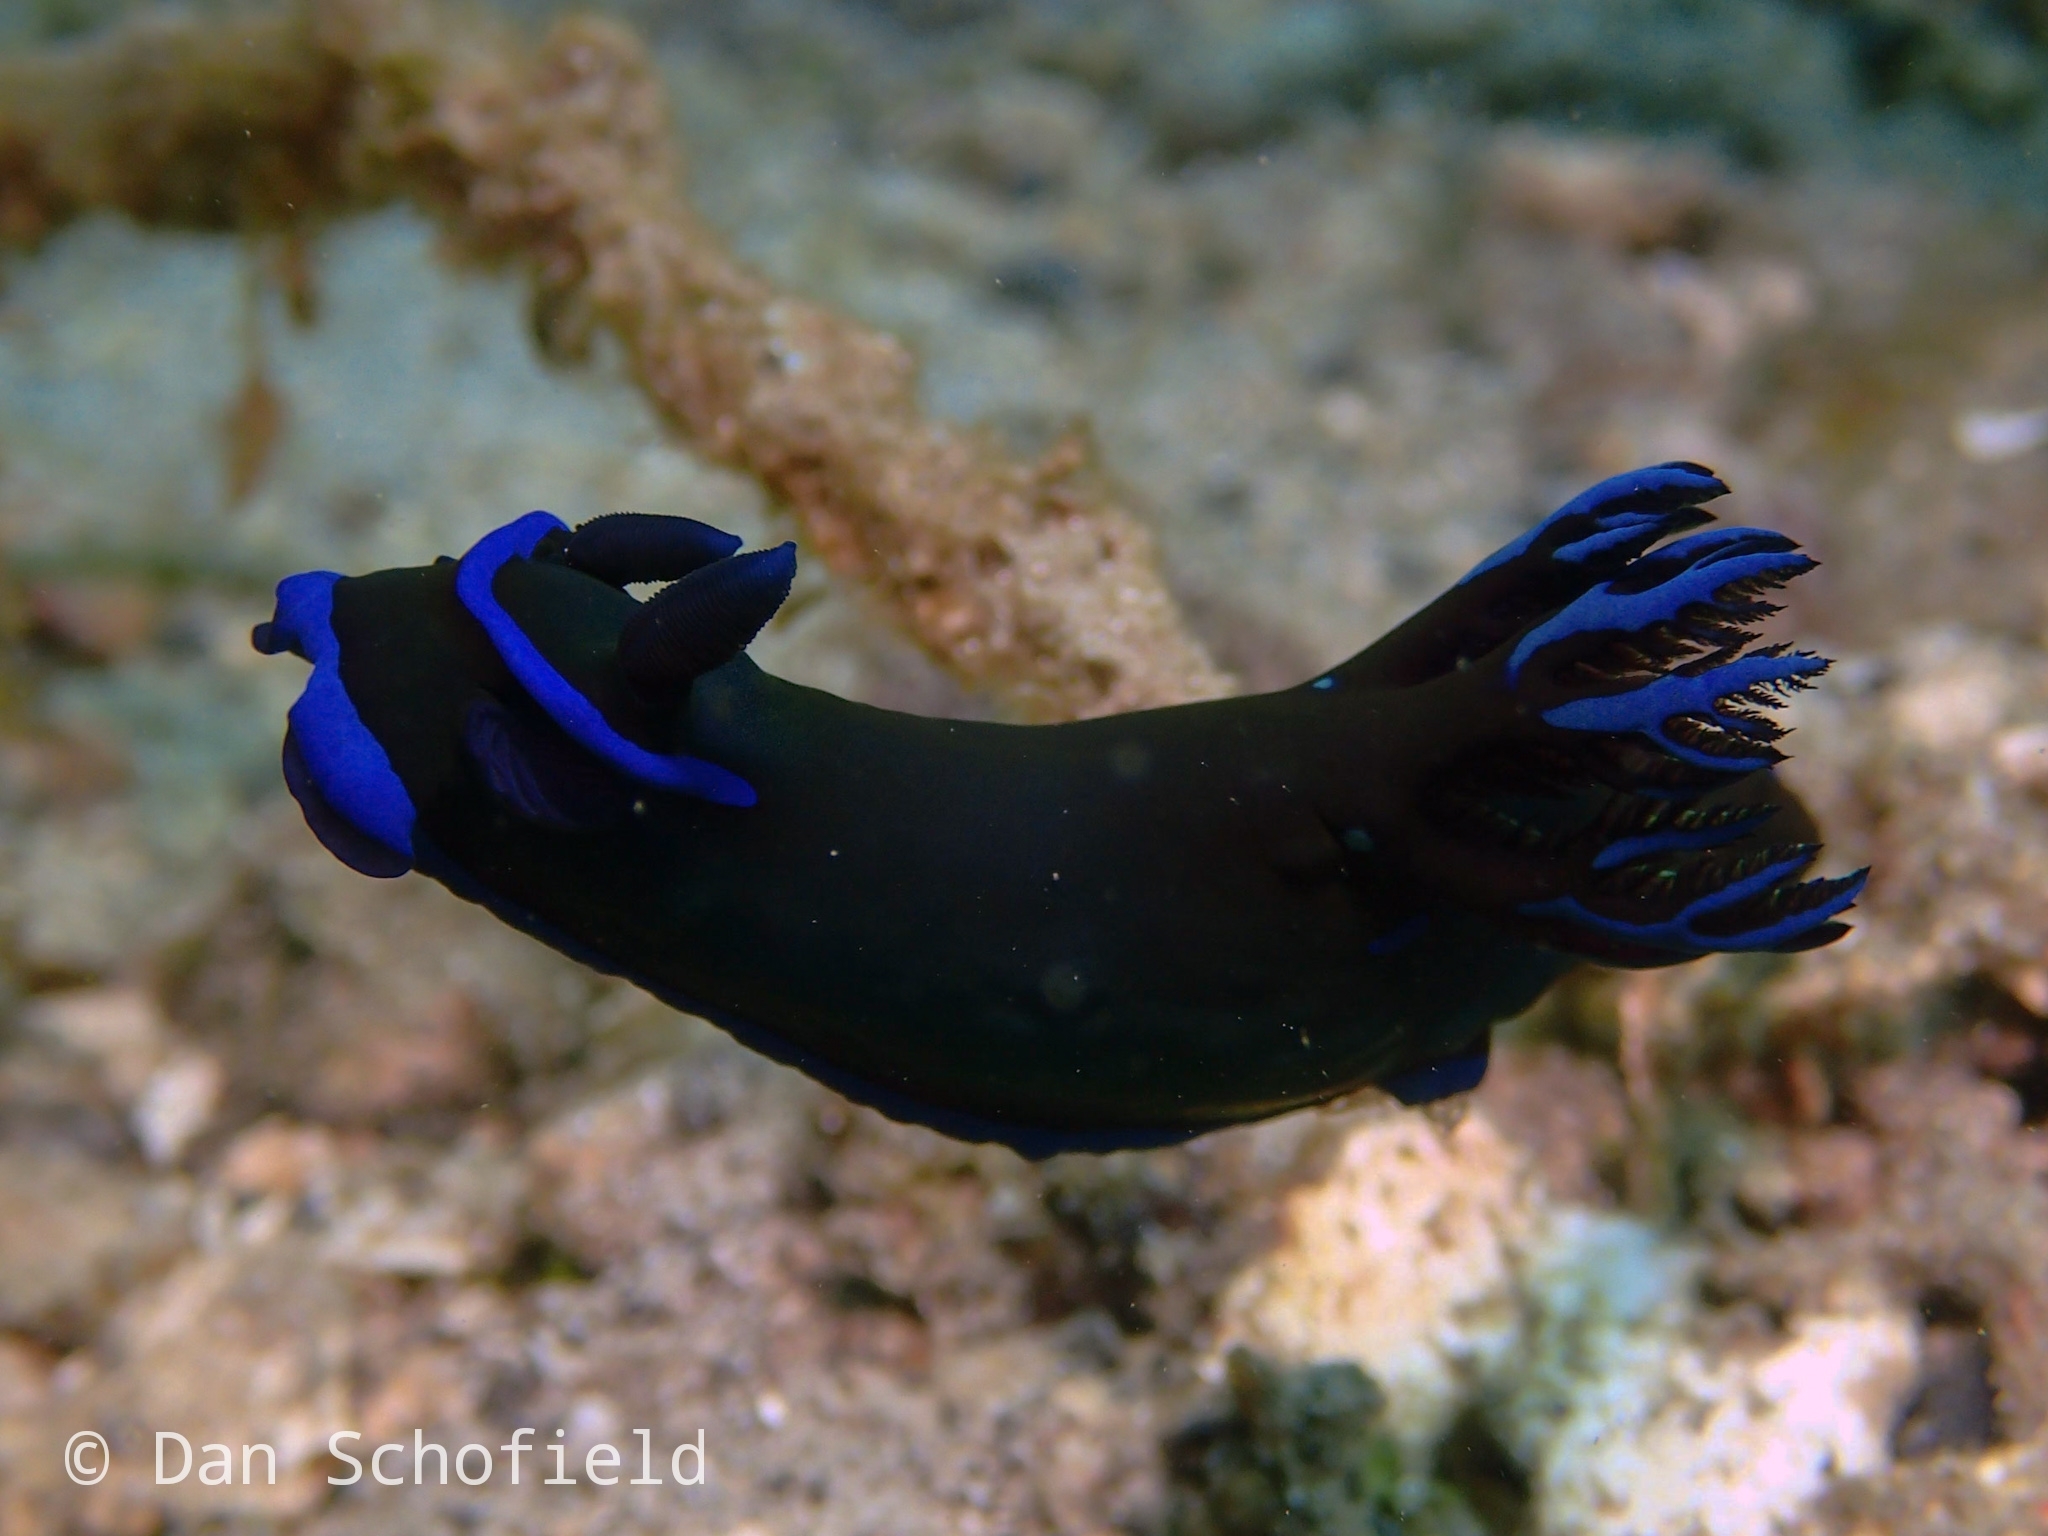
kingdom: Animalia
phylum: Mollusca
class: Gastropoda
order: Nudibranchia
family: Polyceridae
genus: Tambja
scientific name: Tambja morosa
